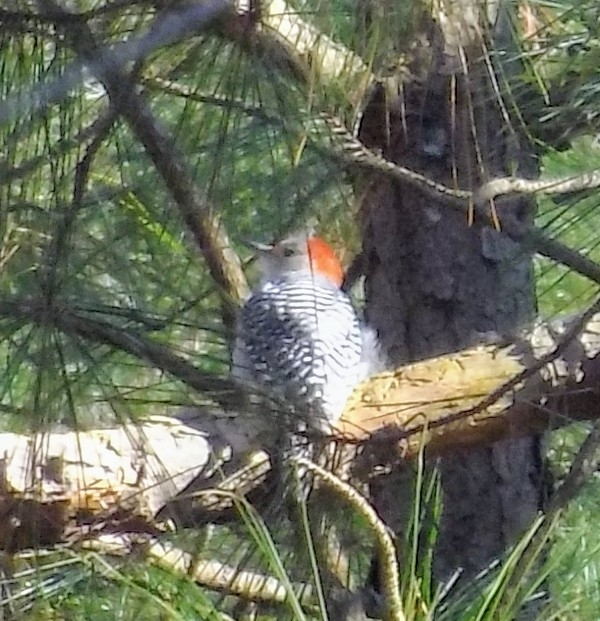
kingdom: Animalia
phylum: Chordata
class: Aves
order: Piciformes
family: Picidae
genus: Melanerpes
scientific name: Melanerpes carolinus
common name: Red-bellied woodpecker
